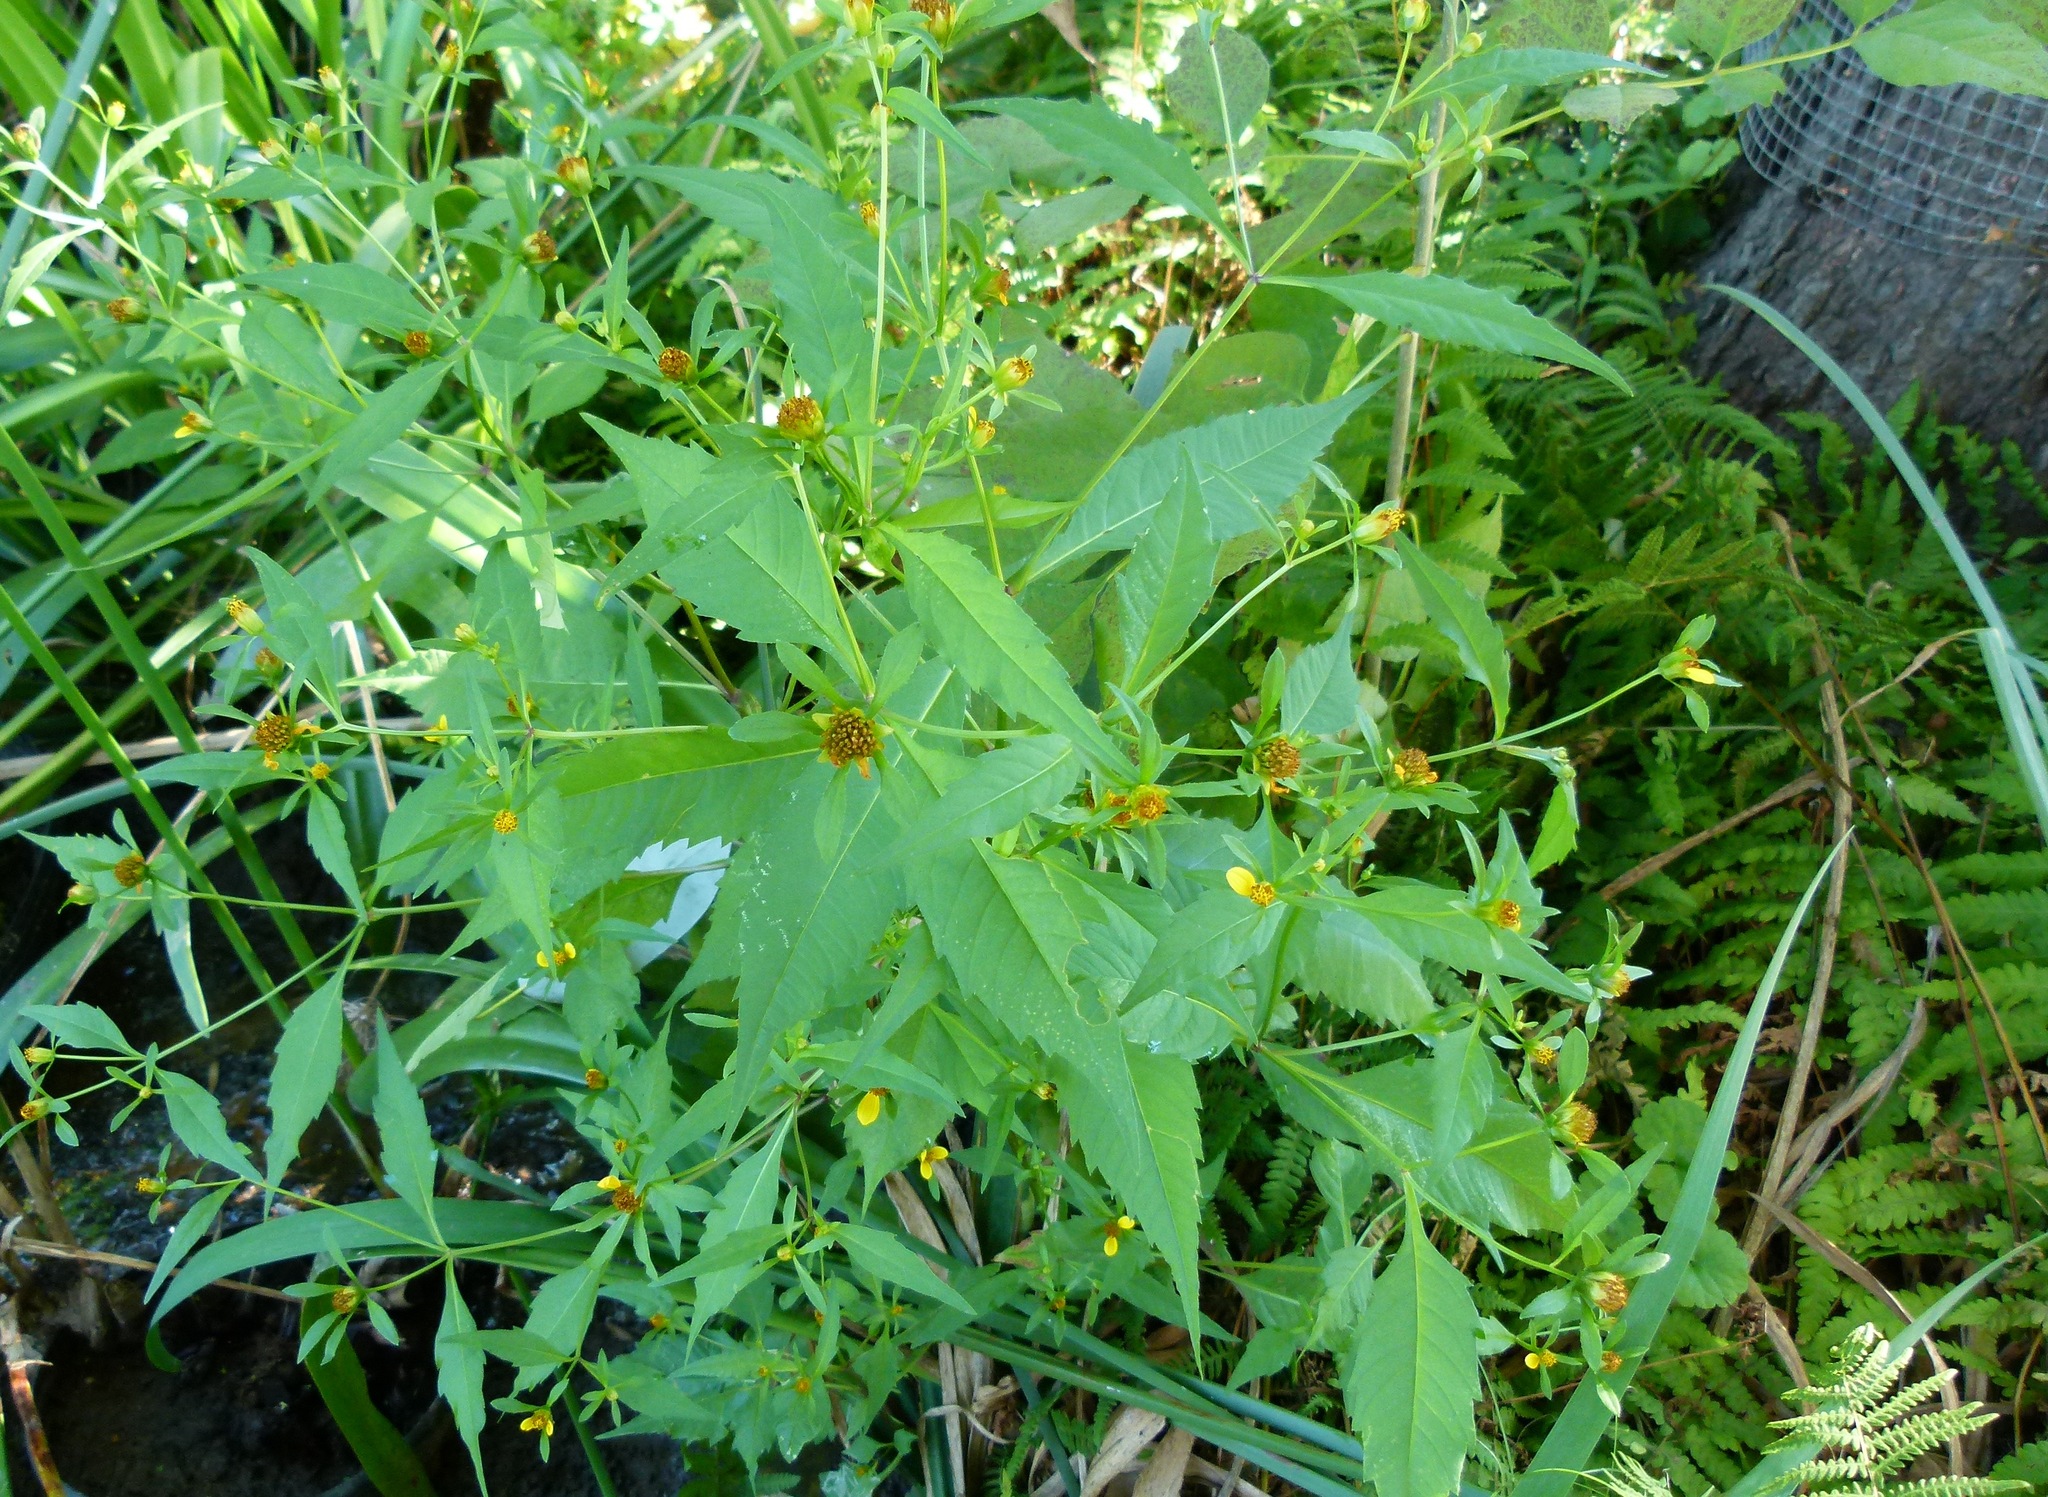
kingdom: Plantae
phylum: Tracheophyta
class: Magnoliopsida
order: Asterales
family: Asteraceae
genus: Bidens
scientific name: Bidens connata
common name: London bur-marigold
